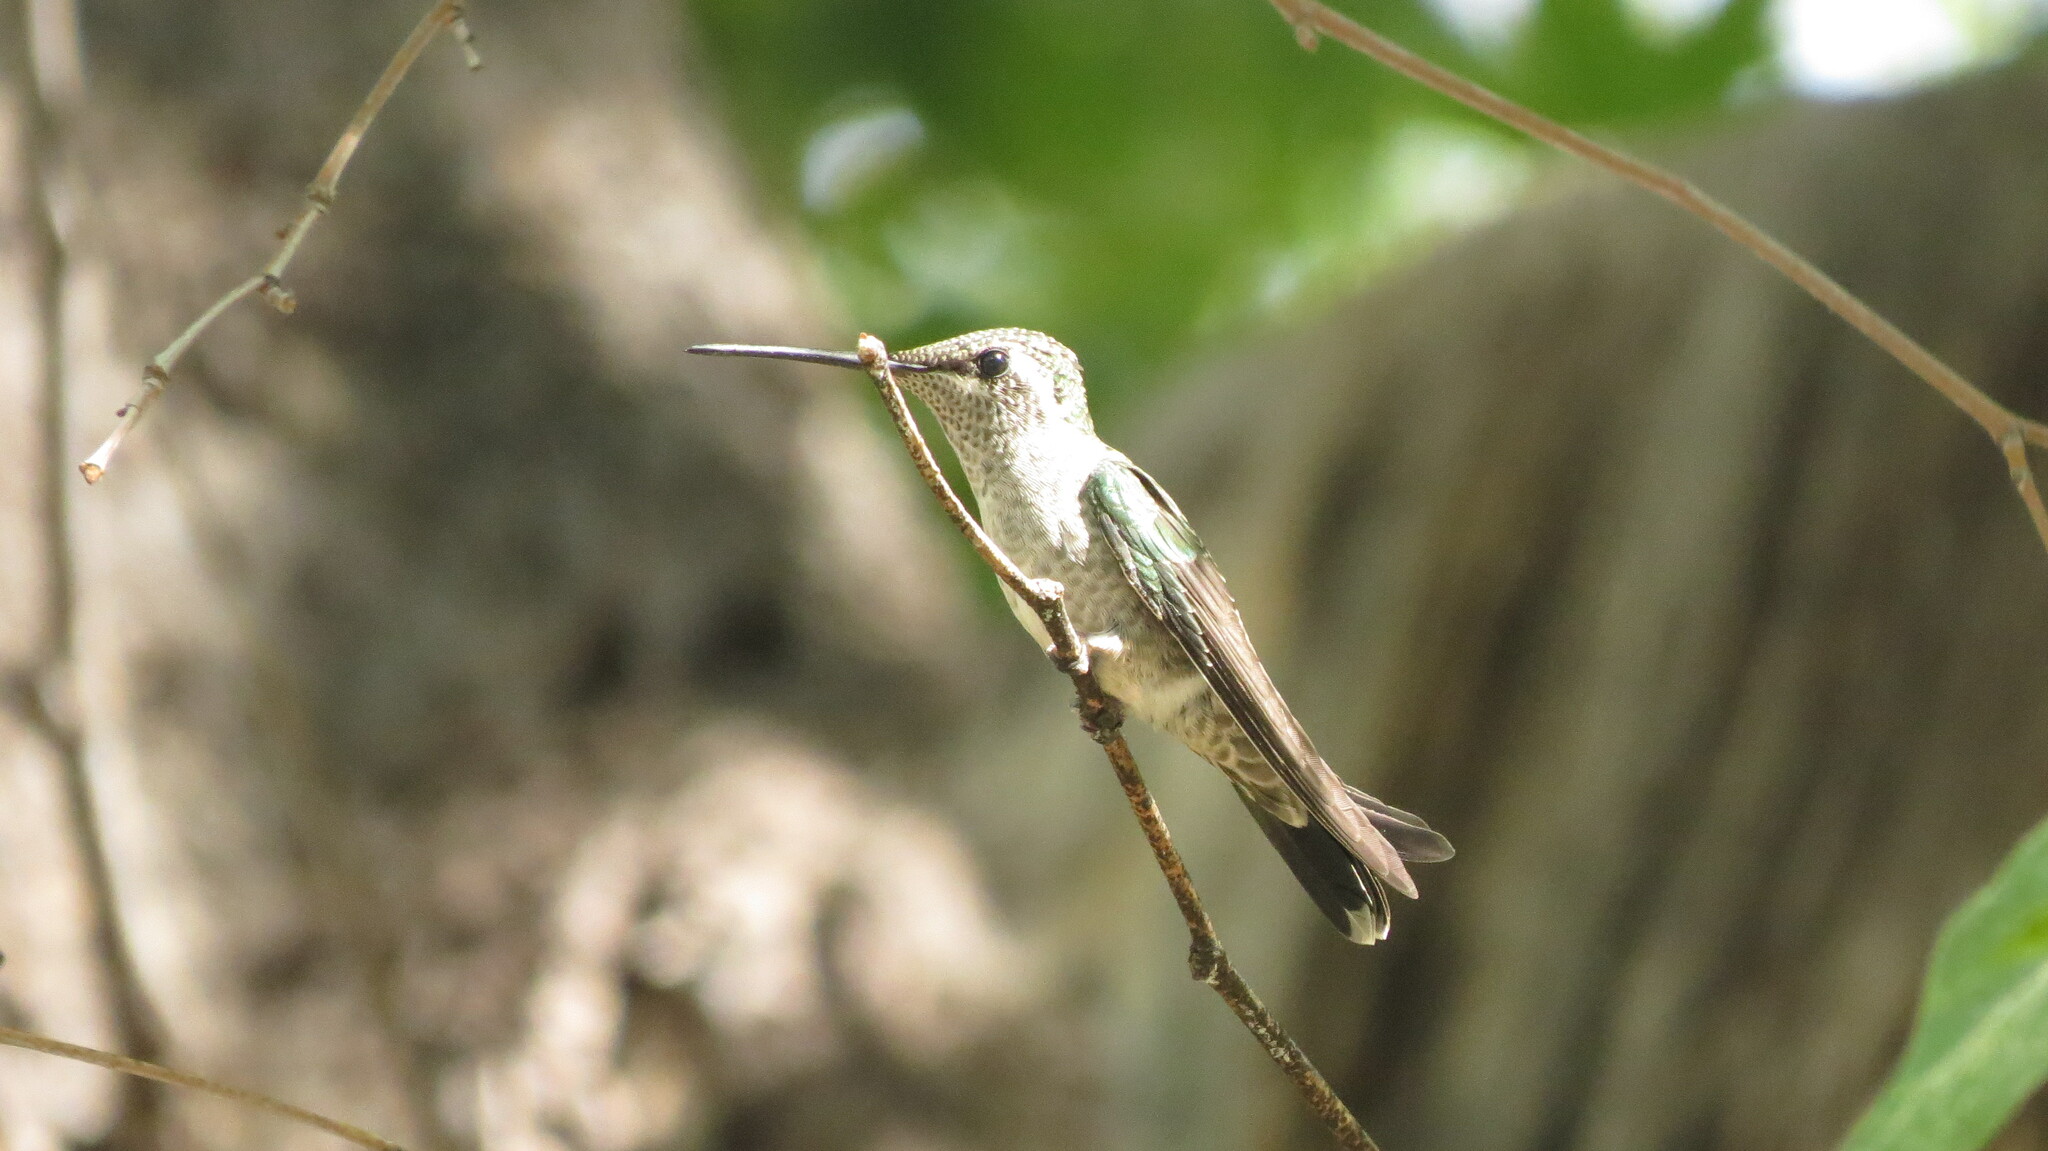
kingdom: Animalia
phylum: Chordata
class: Aves
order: Apodiformes
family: Trochilidae
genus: Eugenes
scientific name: Eugenes fulgens
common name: Magnificent hummingbird
